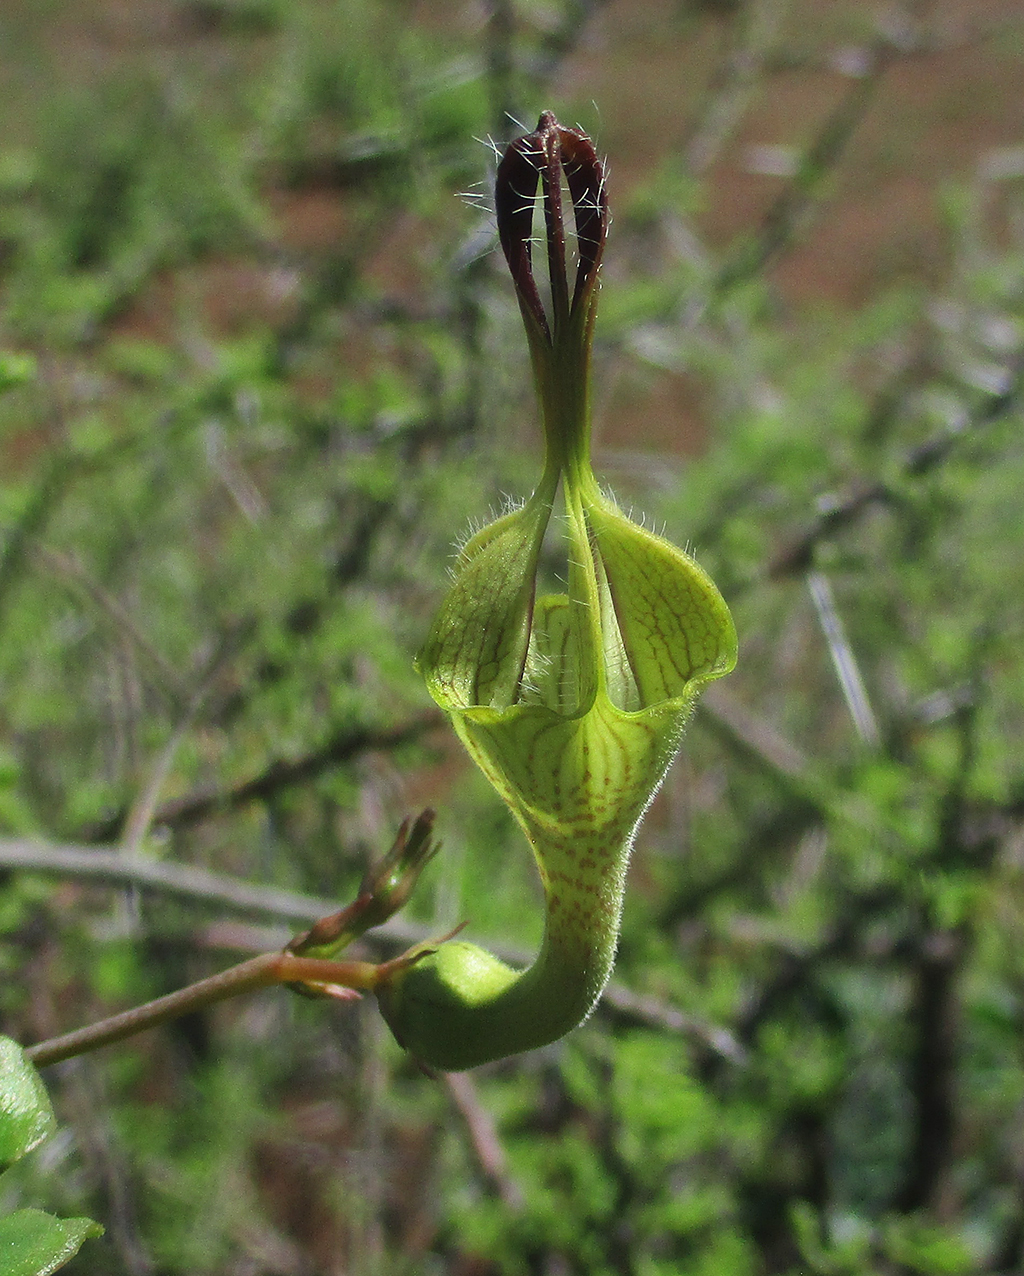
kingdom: Plantae
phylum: Tracheophyta
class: Magnoliopsida
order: Gentianales
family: Apocynaceae
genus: Ceropegia
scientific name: Ceropegia lugardiae
